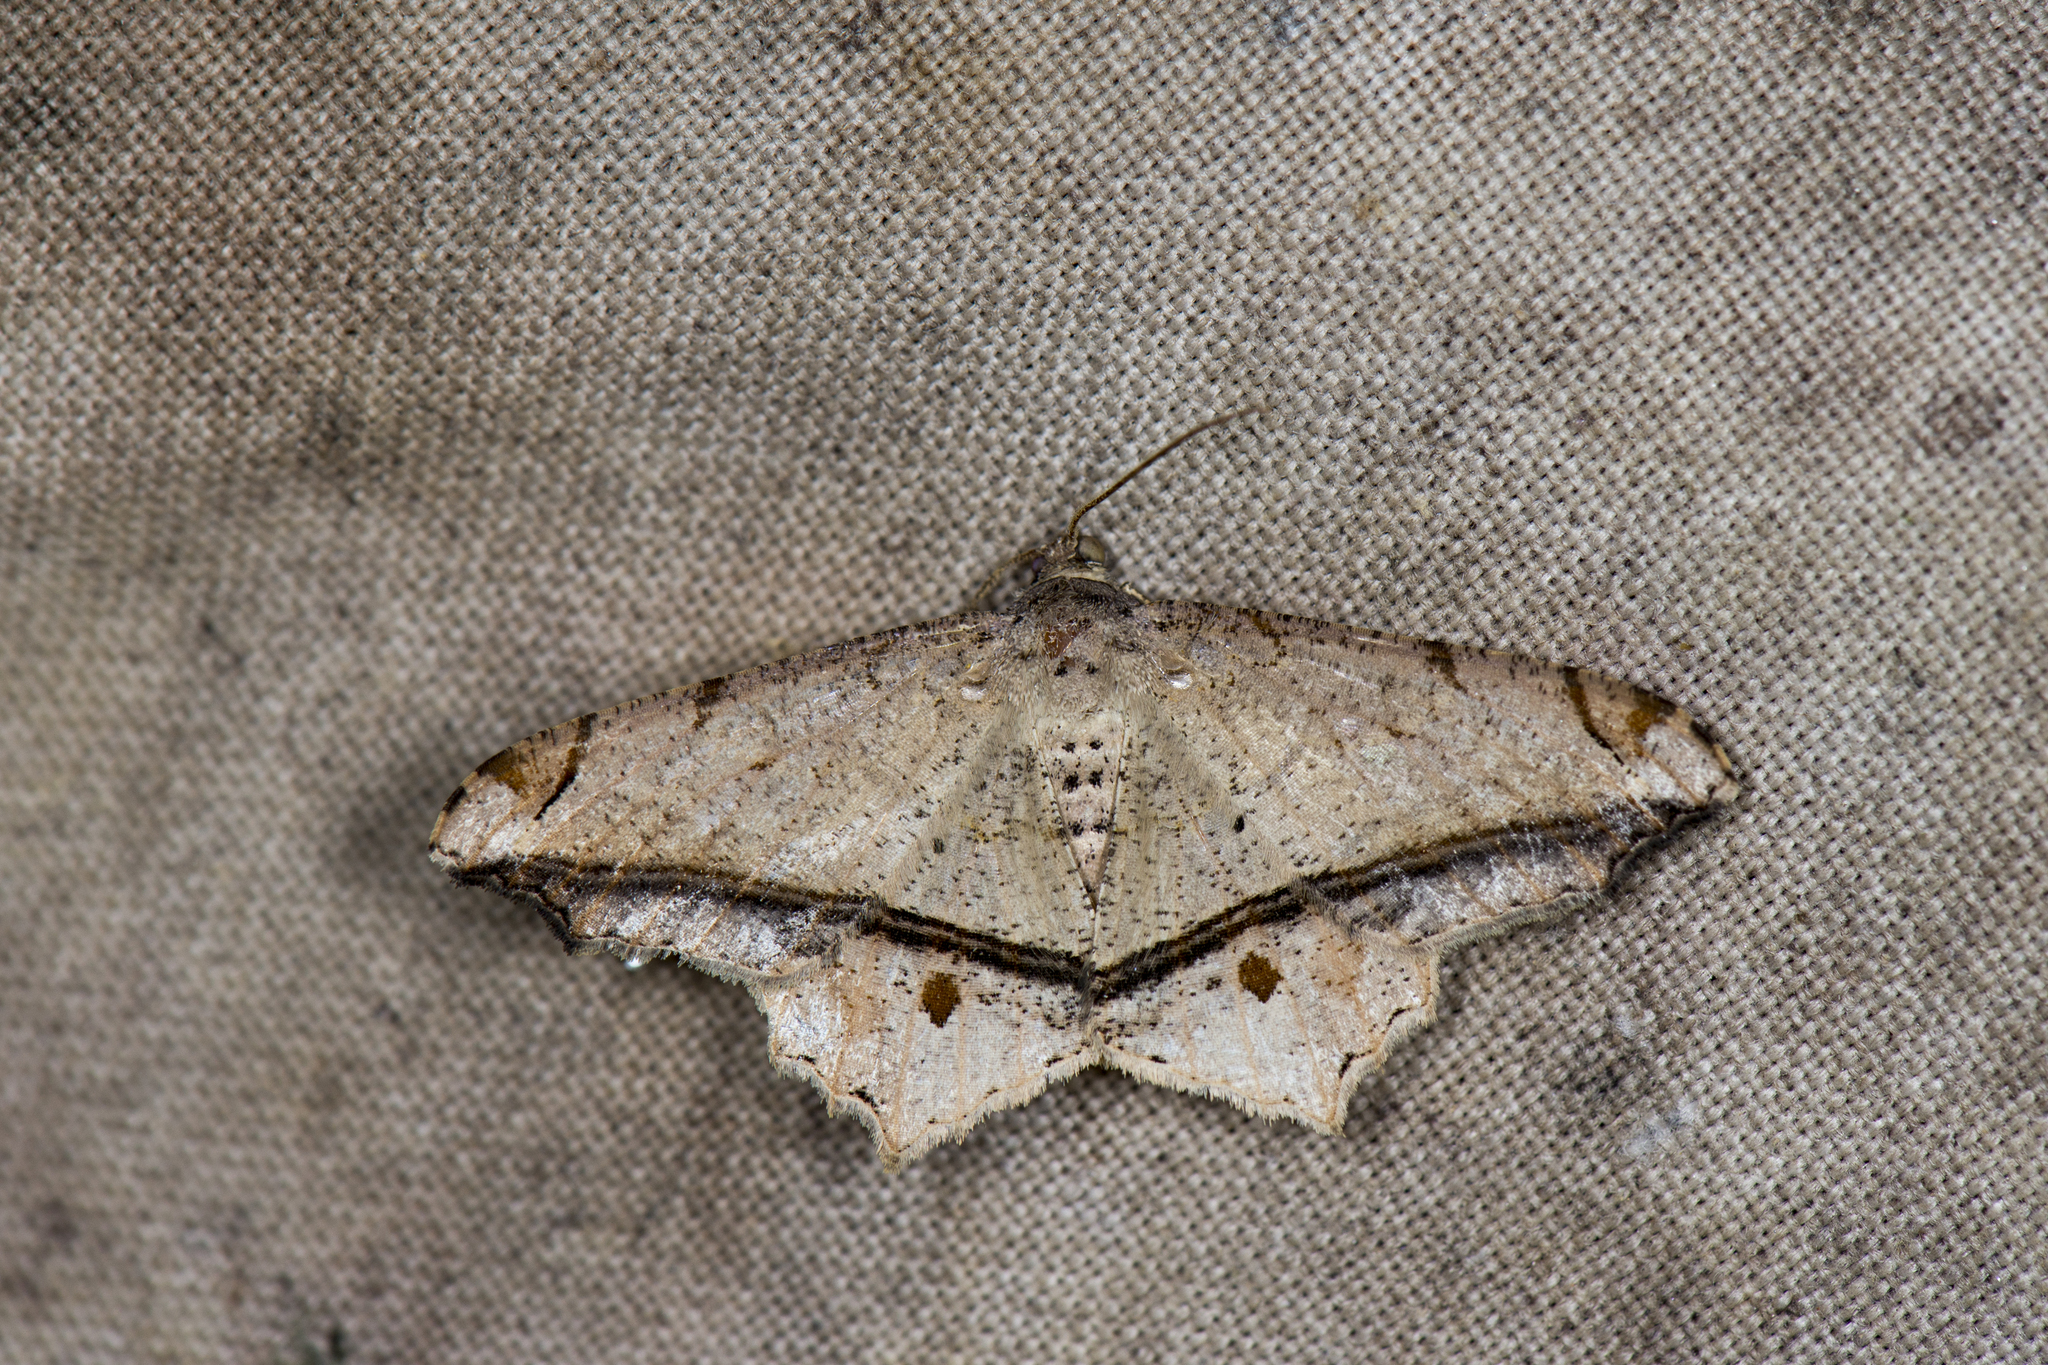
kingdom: Animalia
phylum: Arthropoda
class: Insecta
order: Lepidoptera
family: Geometridae
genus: Chiasmia
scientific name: Chiasmia ozararia
